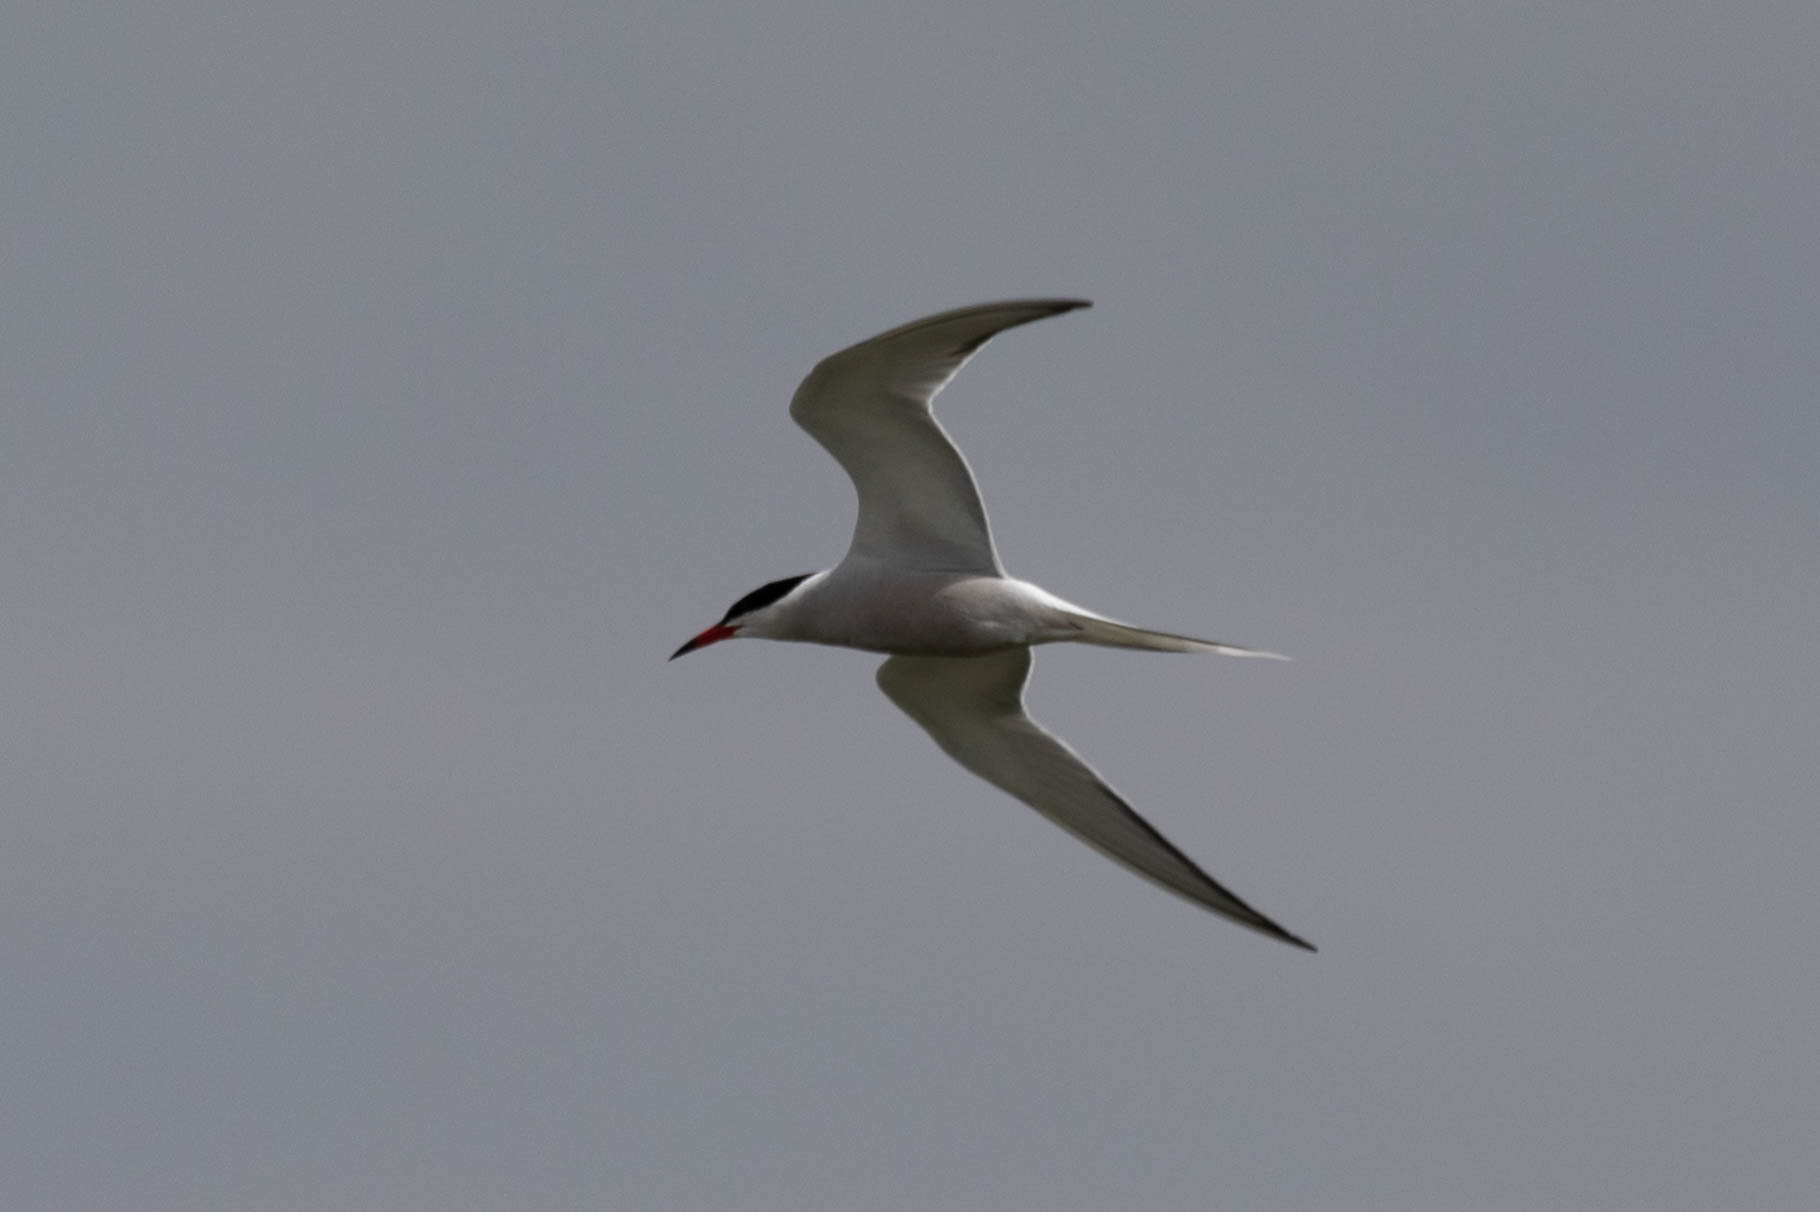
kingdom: Animalia
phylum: Chordata
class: Aves
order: Charadriiformes
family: Laridae
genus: Sterna
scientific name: Sterna hirundo
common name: Common tern
